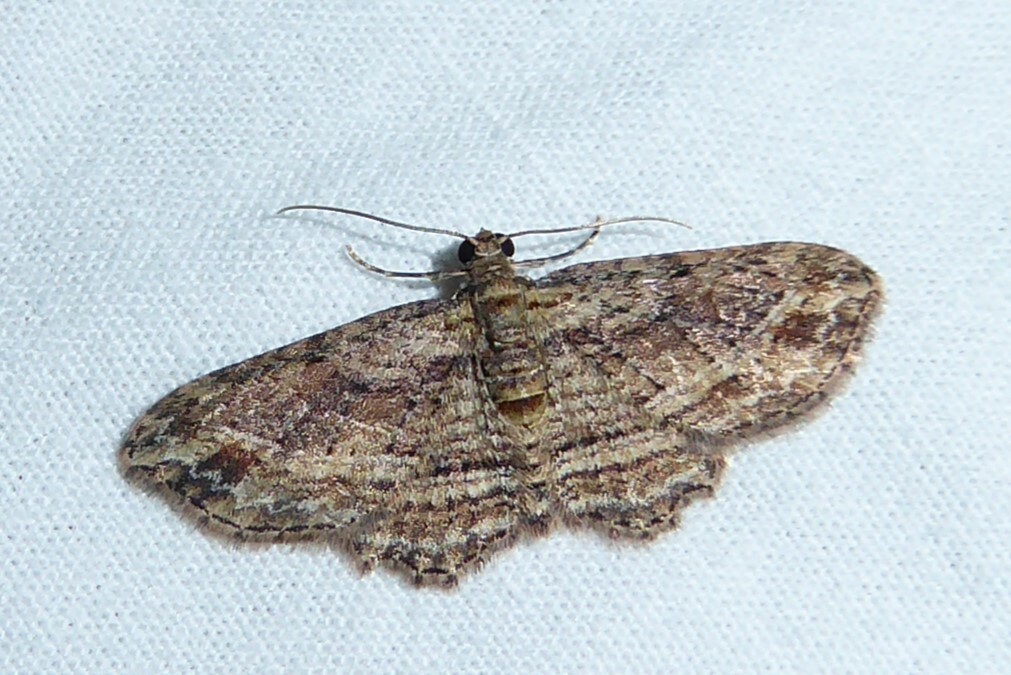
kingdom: Animalia
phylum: Arthropoda
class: Insecta
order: Lepidoptera
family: Geometridae
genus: Chloroclystis
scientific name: Chloroclystis filata
